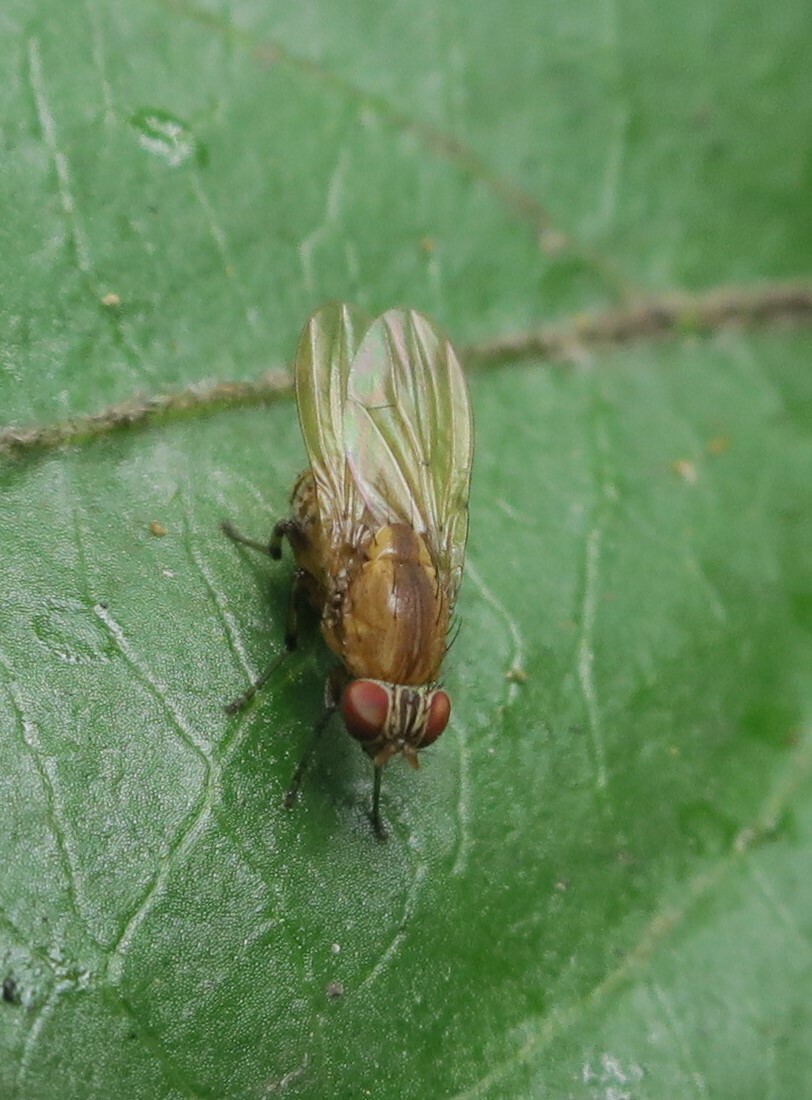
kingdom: Animalia
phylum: Arthropoda
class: Insecta
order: Diptera
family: Lauxaniidae
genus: Sapromyza
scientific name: Sapromyza neozelandica
